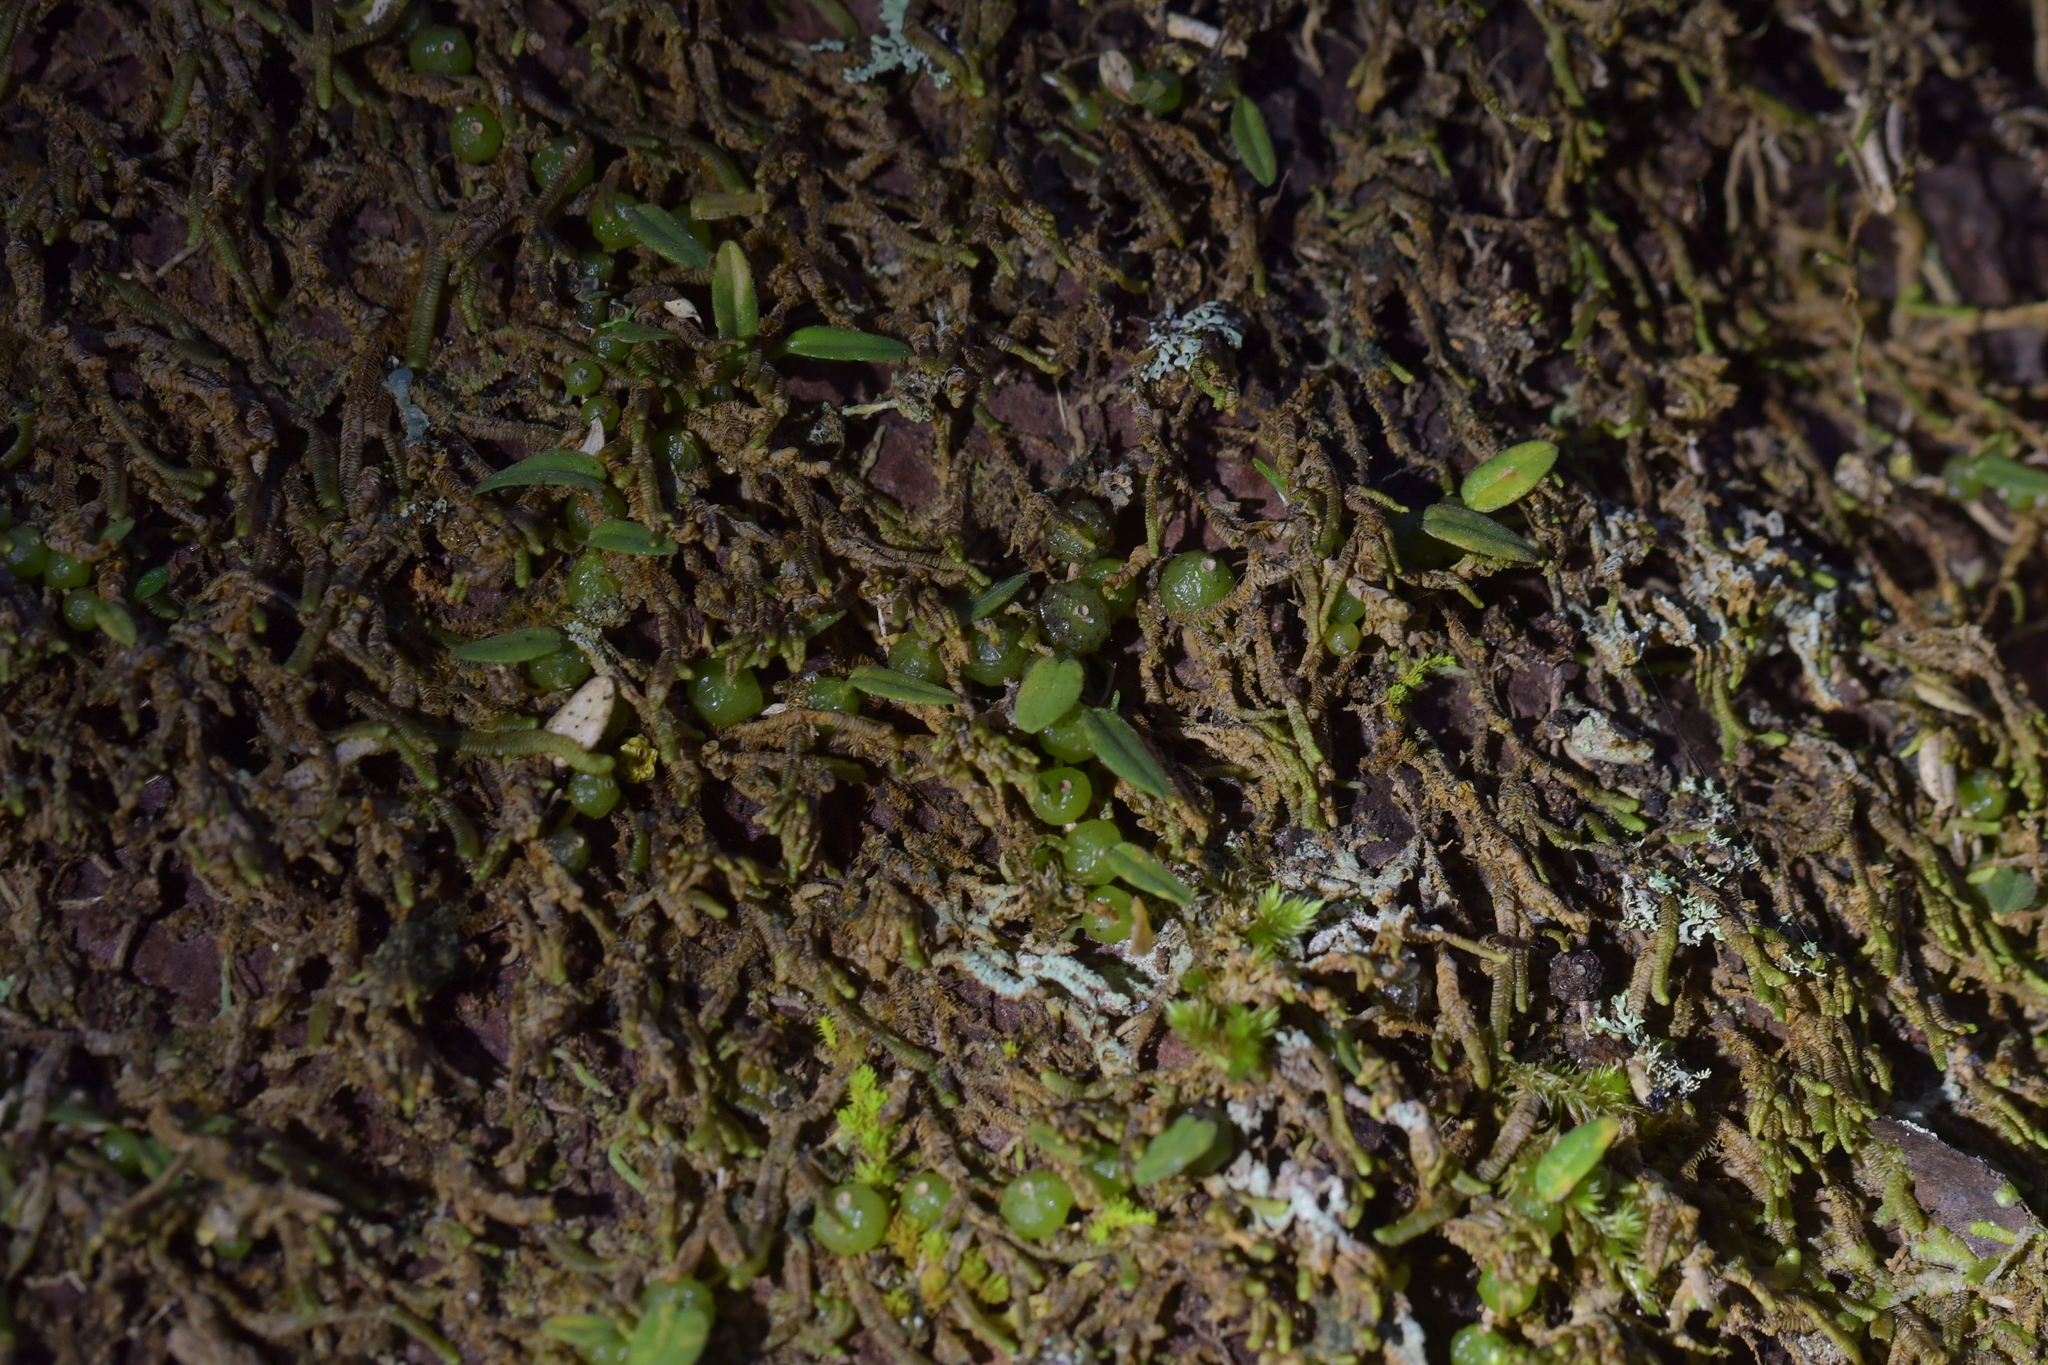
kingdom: Plantae
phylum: Tracheophyta
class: Liliopsida
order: Asparagales
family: Orchidaceae
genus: Bulbophyllum
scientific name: Bulbophyllum pygmaeum
